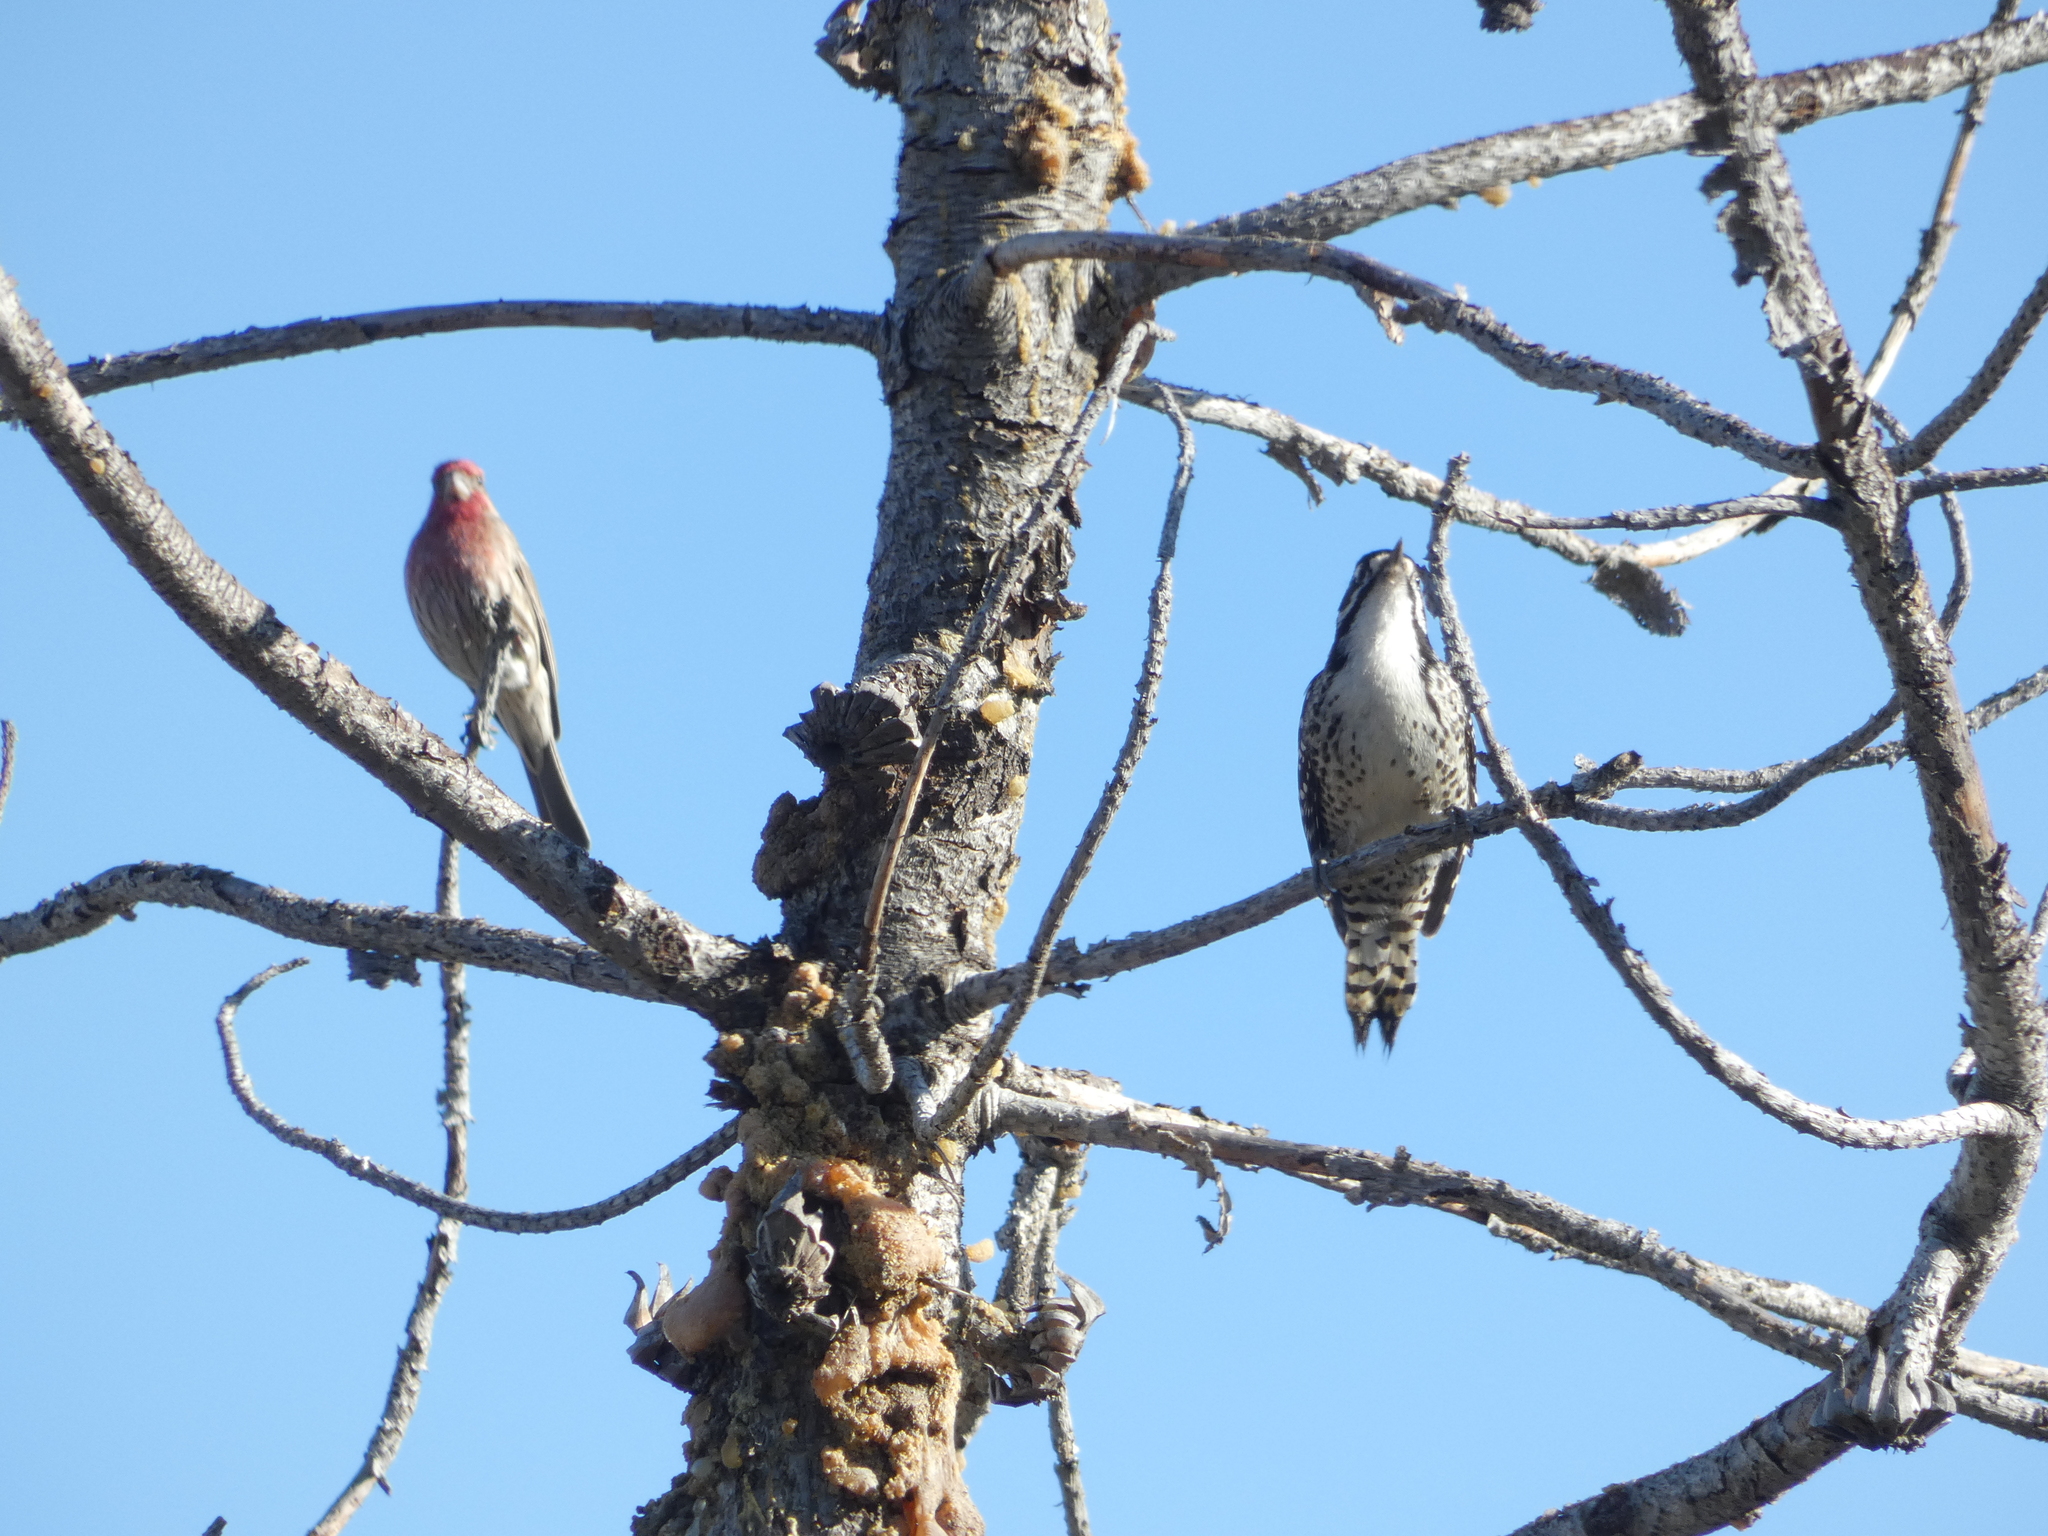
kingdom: Animalia
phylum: Chordata
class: Aves
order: Piciformes
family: Picidae
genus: Dryobates
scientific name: Dryobates nuttallii
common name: Nuttall's woodpecker
